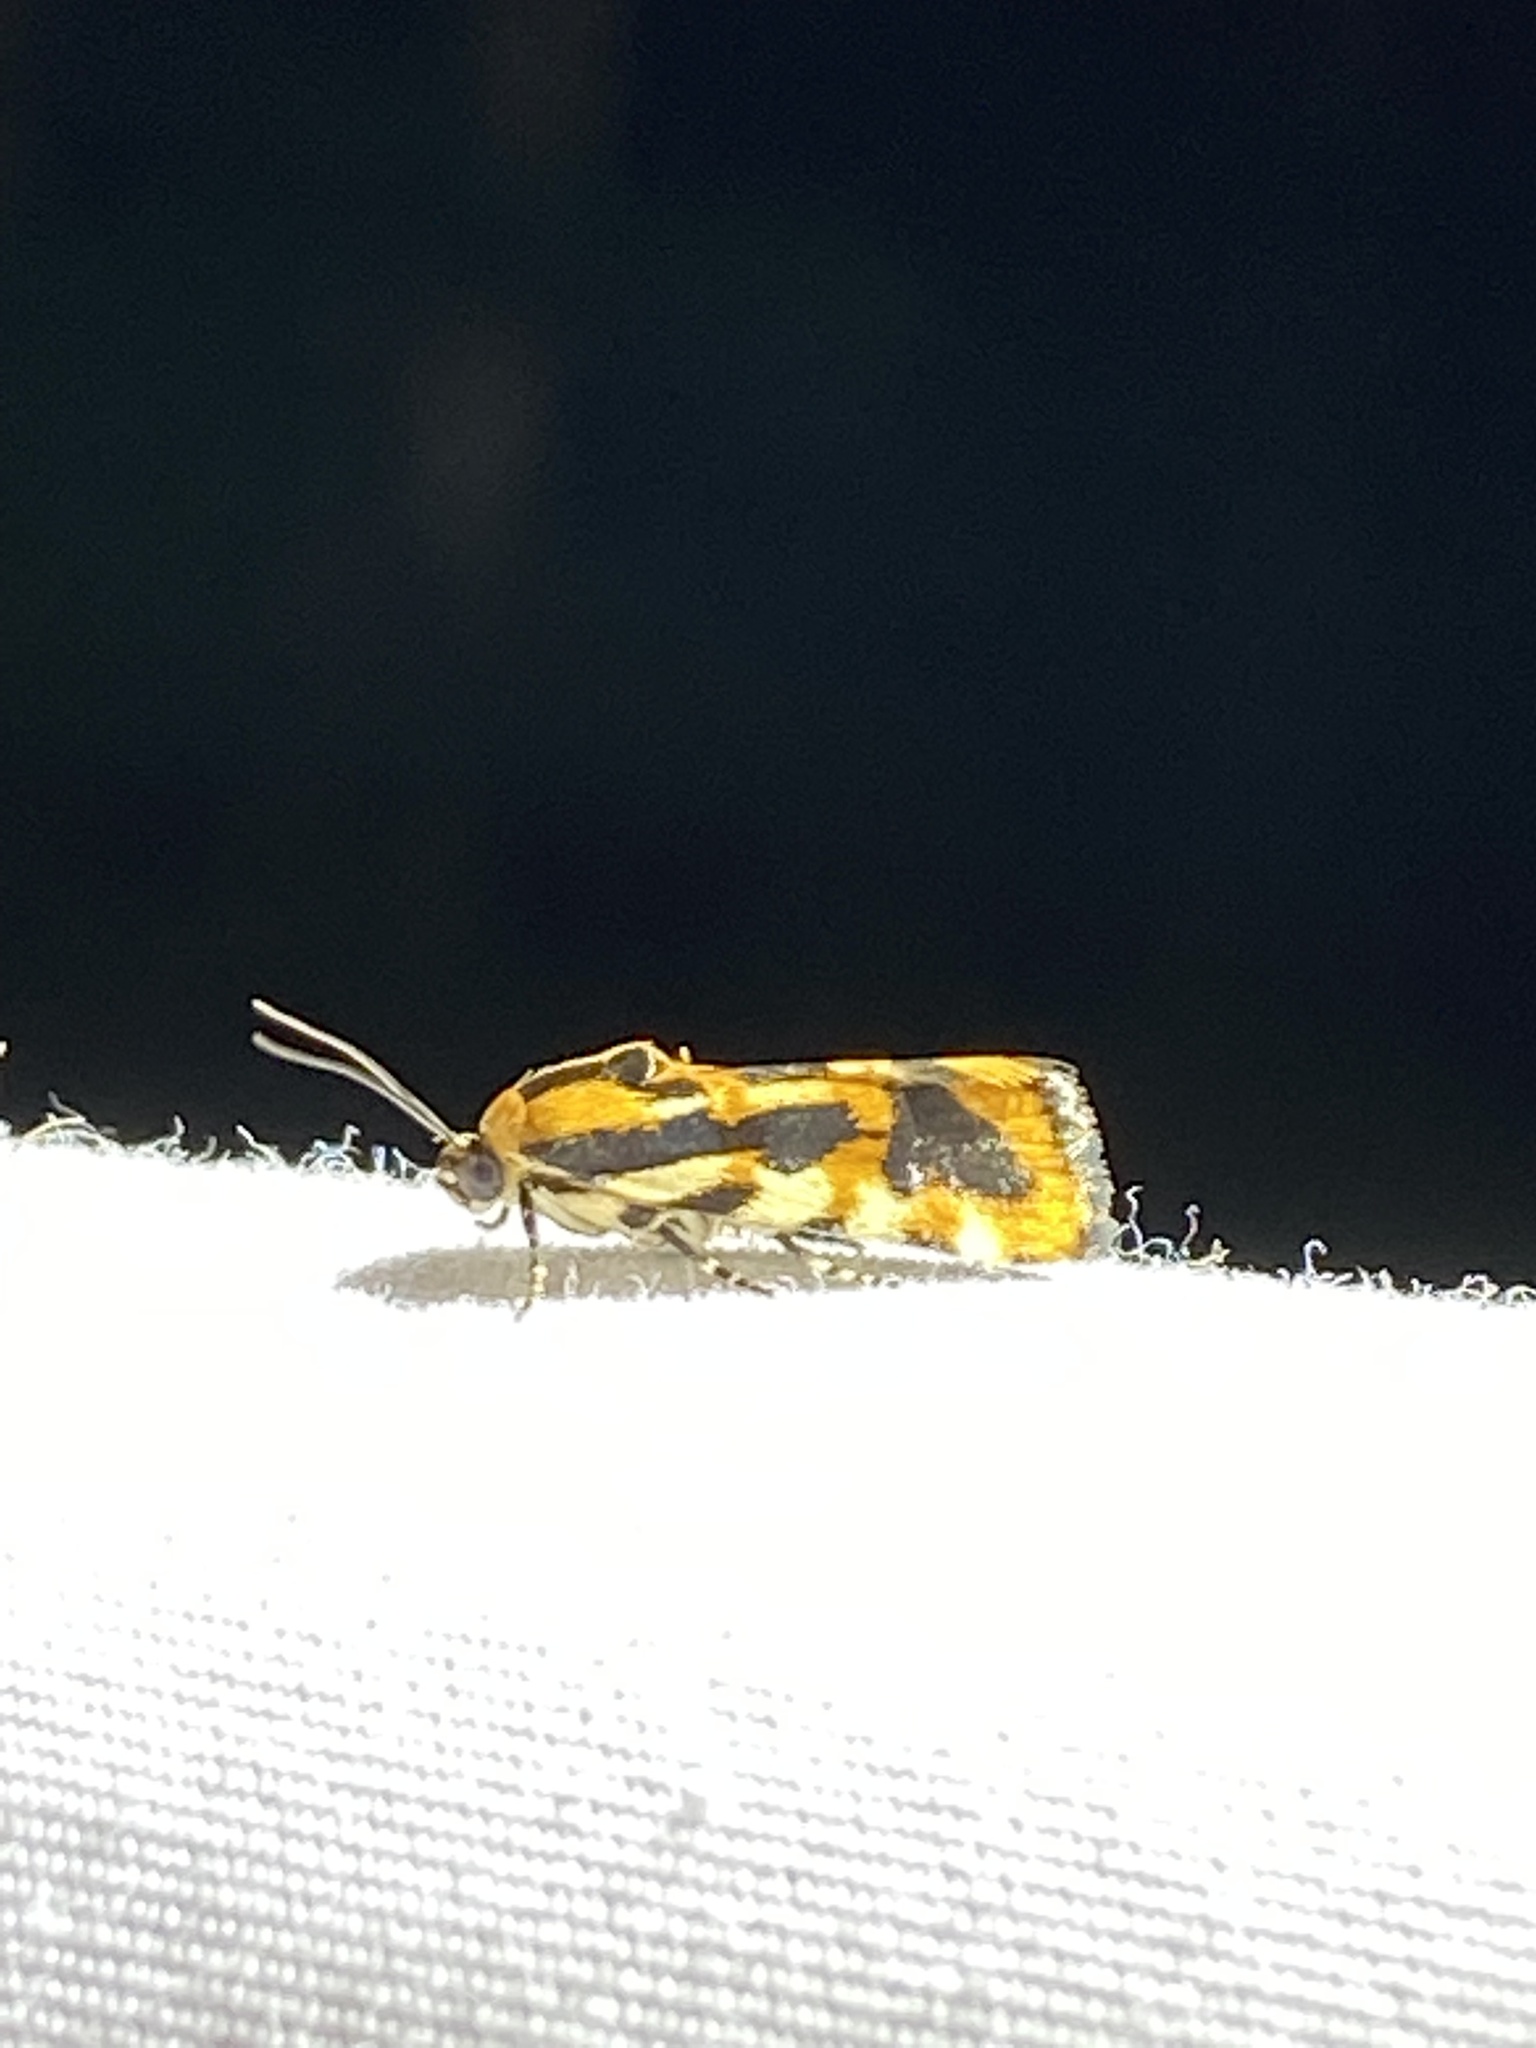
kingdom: Animalia
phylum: Arthropoda
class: Insecta
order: Lepidoptera
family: Noctuidae
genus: Acontia
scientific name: Acontia leo
